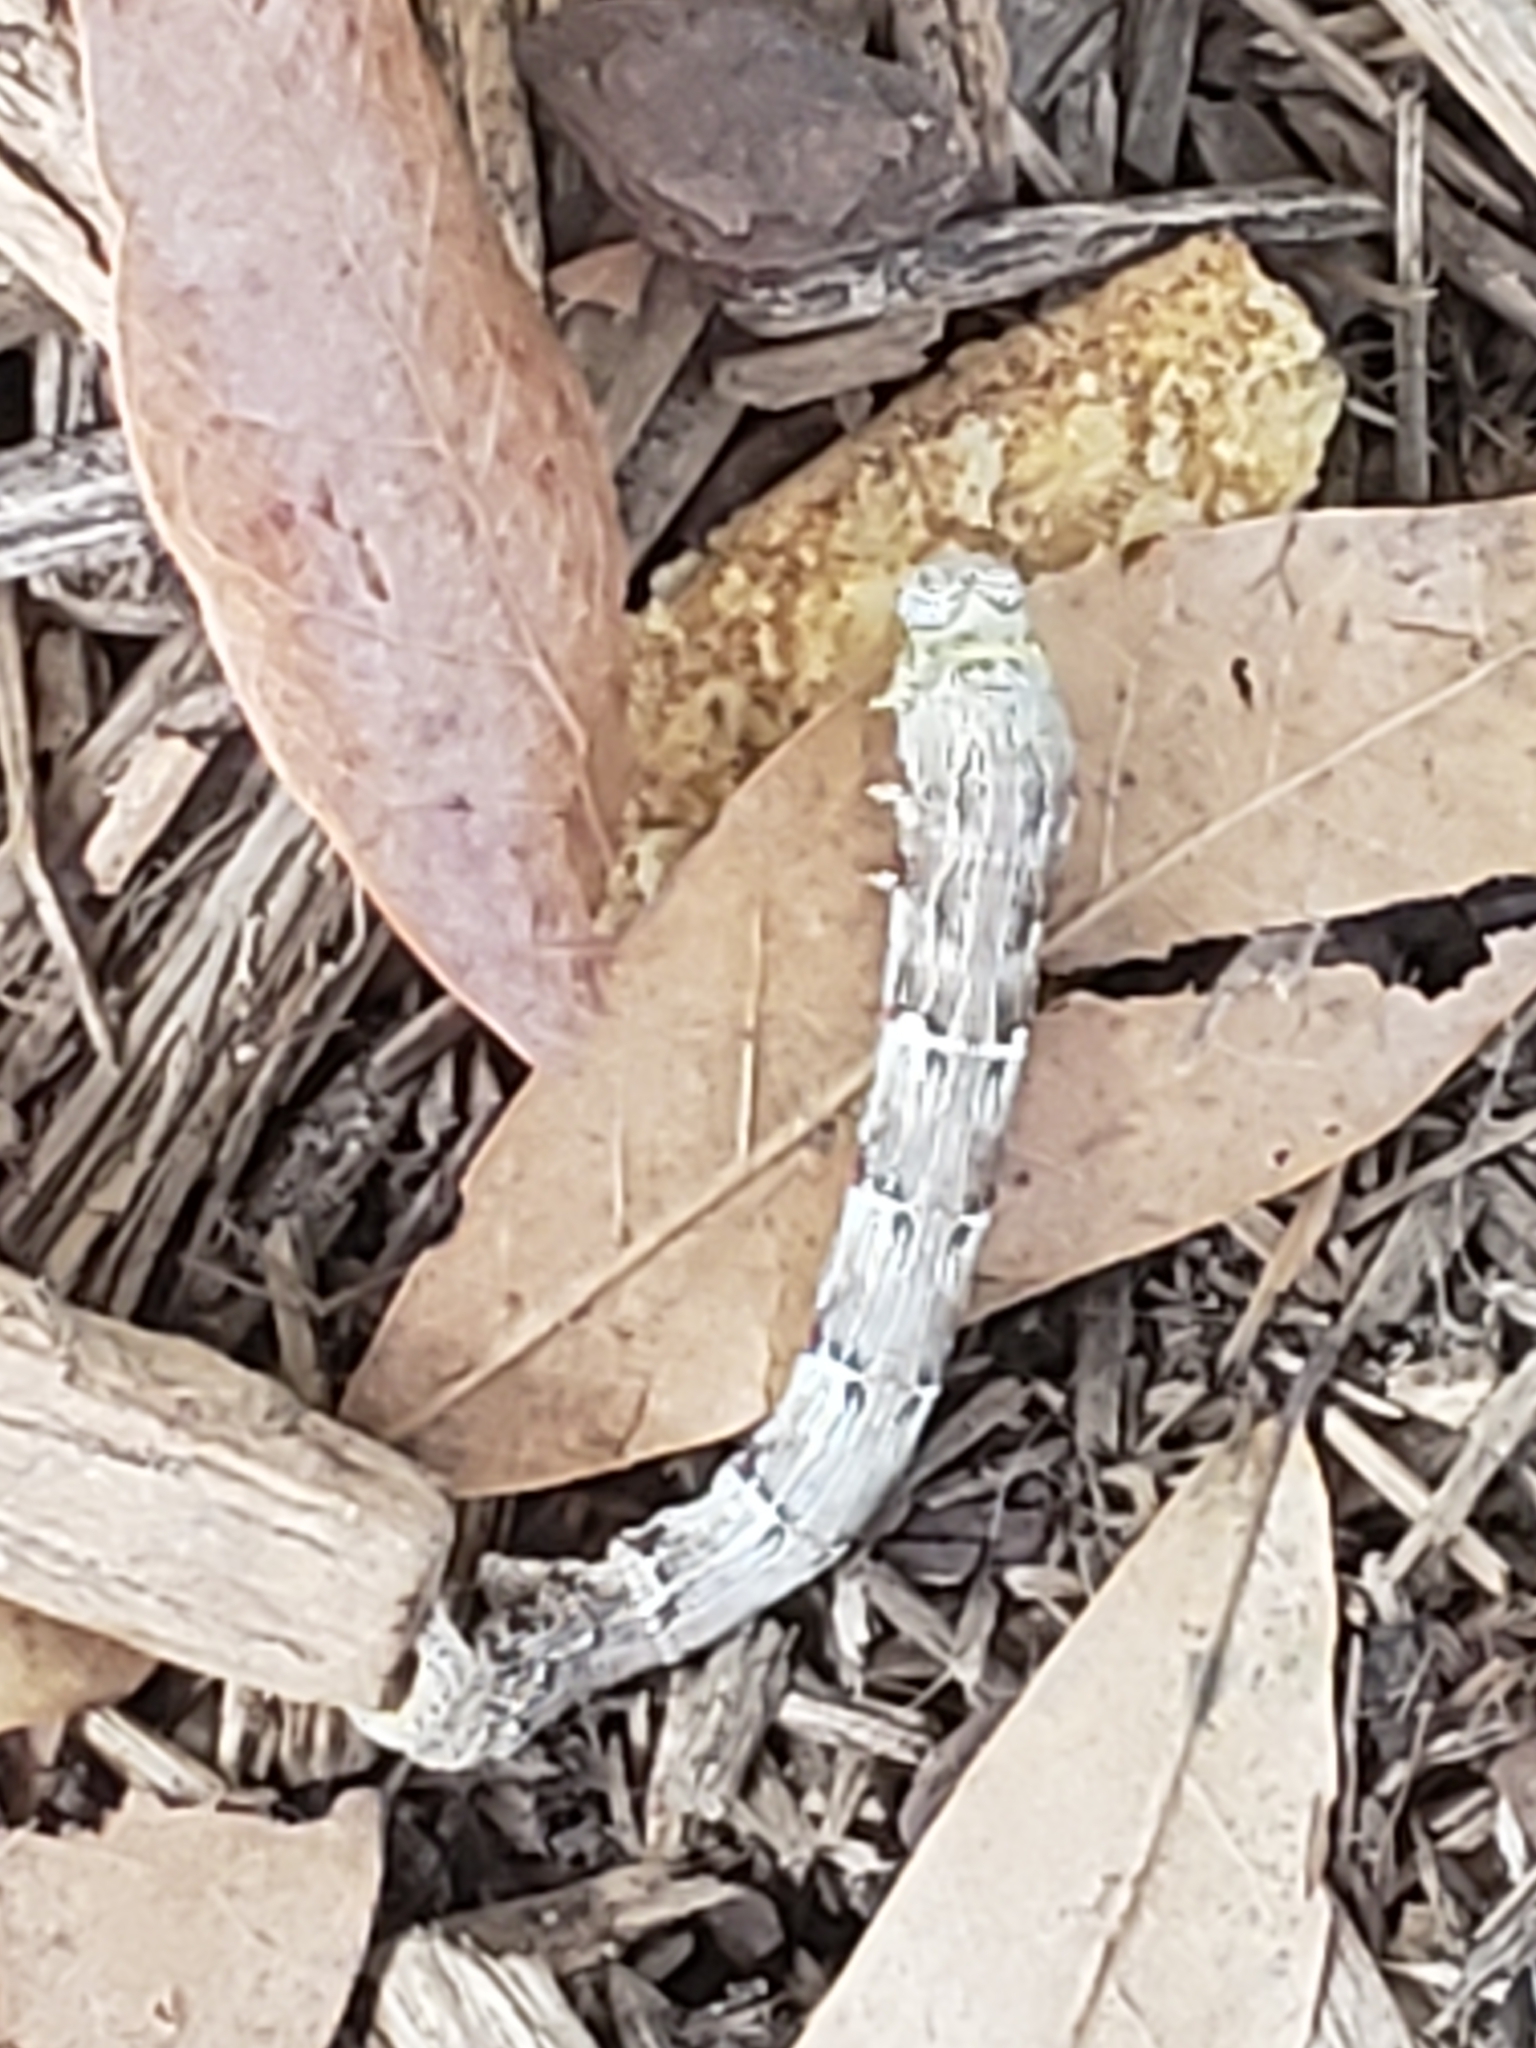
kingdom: Animalia
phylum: Arthropoda
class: Insecta
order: Lepidoptera
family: Geometridae
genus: Lycia
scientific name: Lycia ypsilon
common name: Wooly gray
